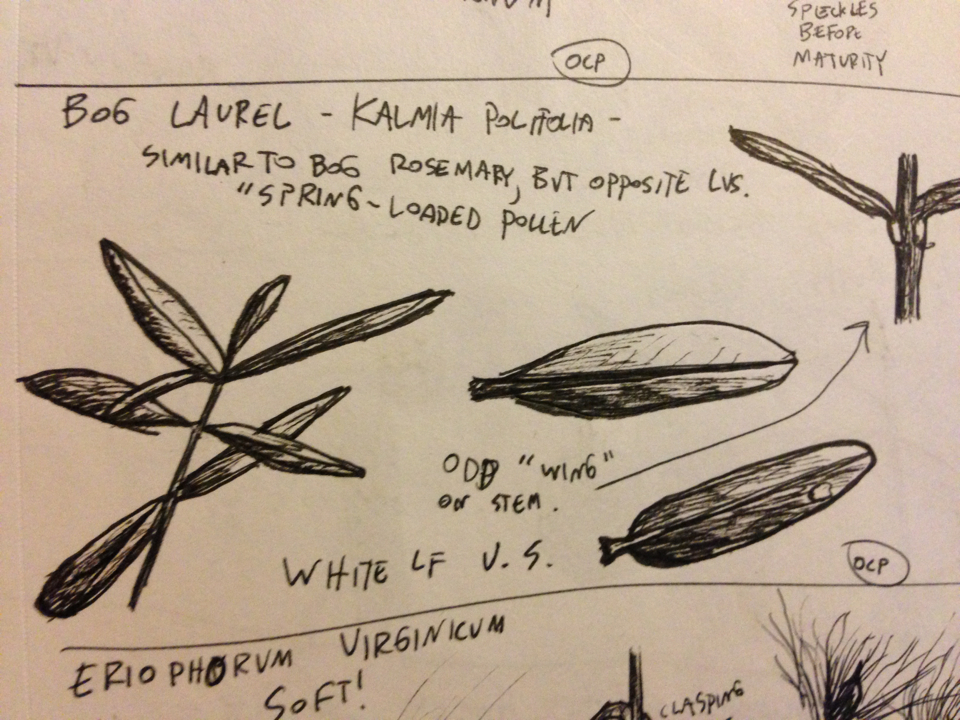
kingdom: Plantae
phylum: Tracheophyta
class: Magnoliopsida
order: Ericales
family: Ericaceae
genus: Kalmia
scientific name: Kalmia polifolia
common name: Bog-laurel
